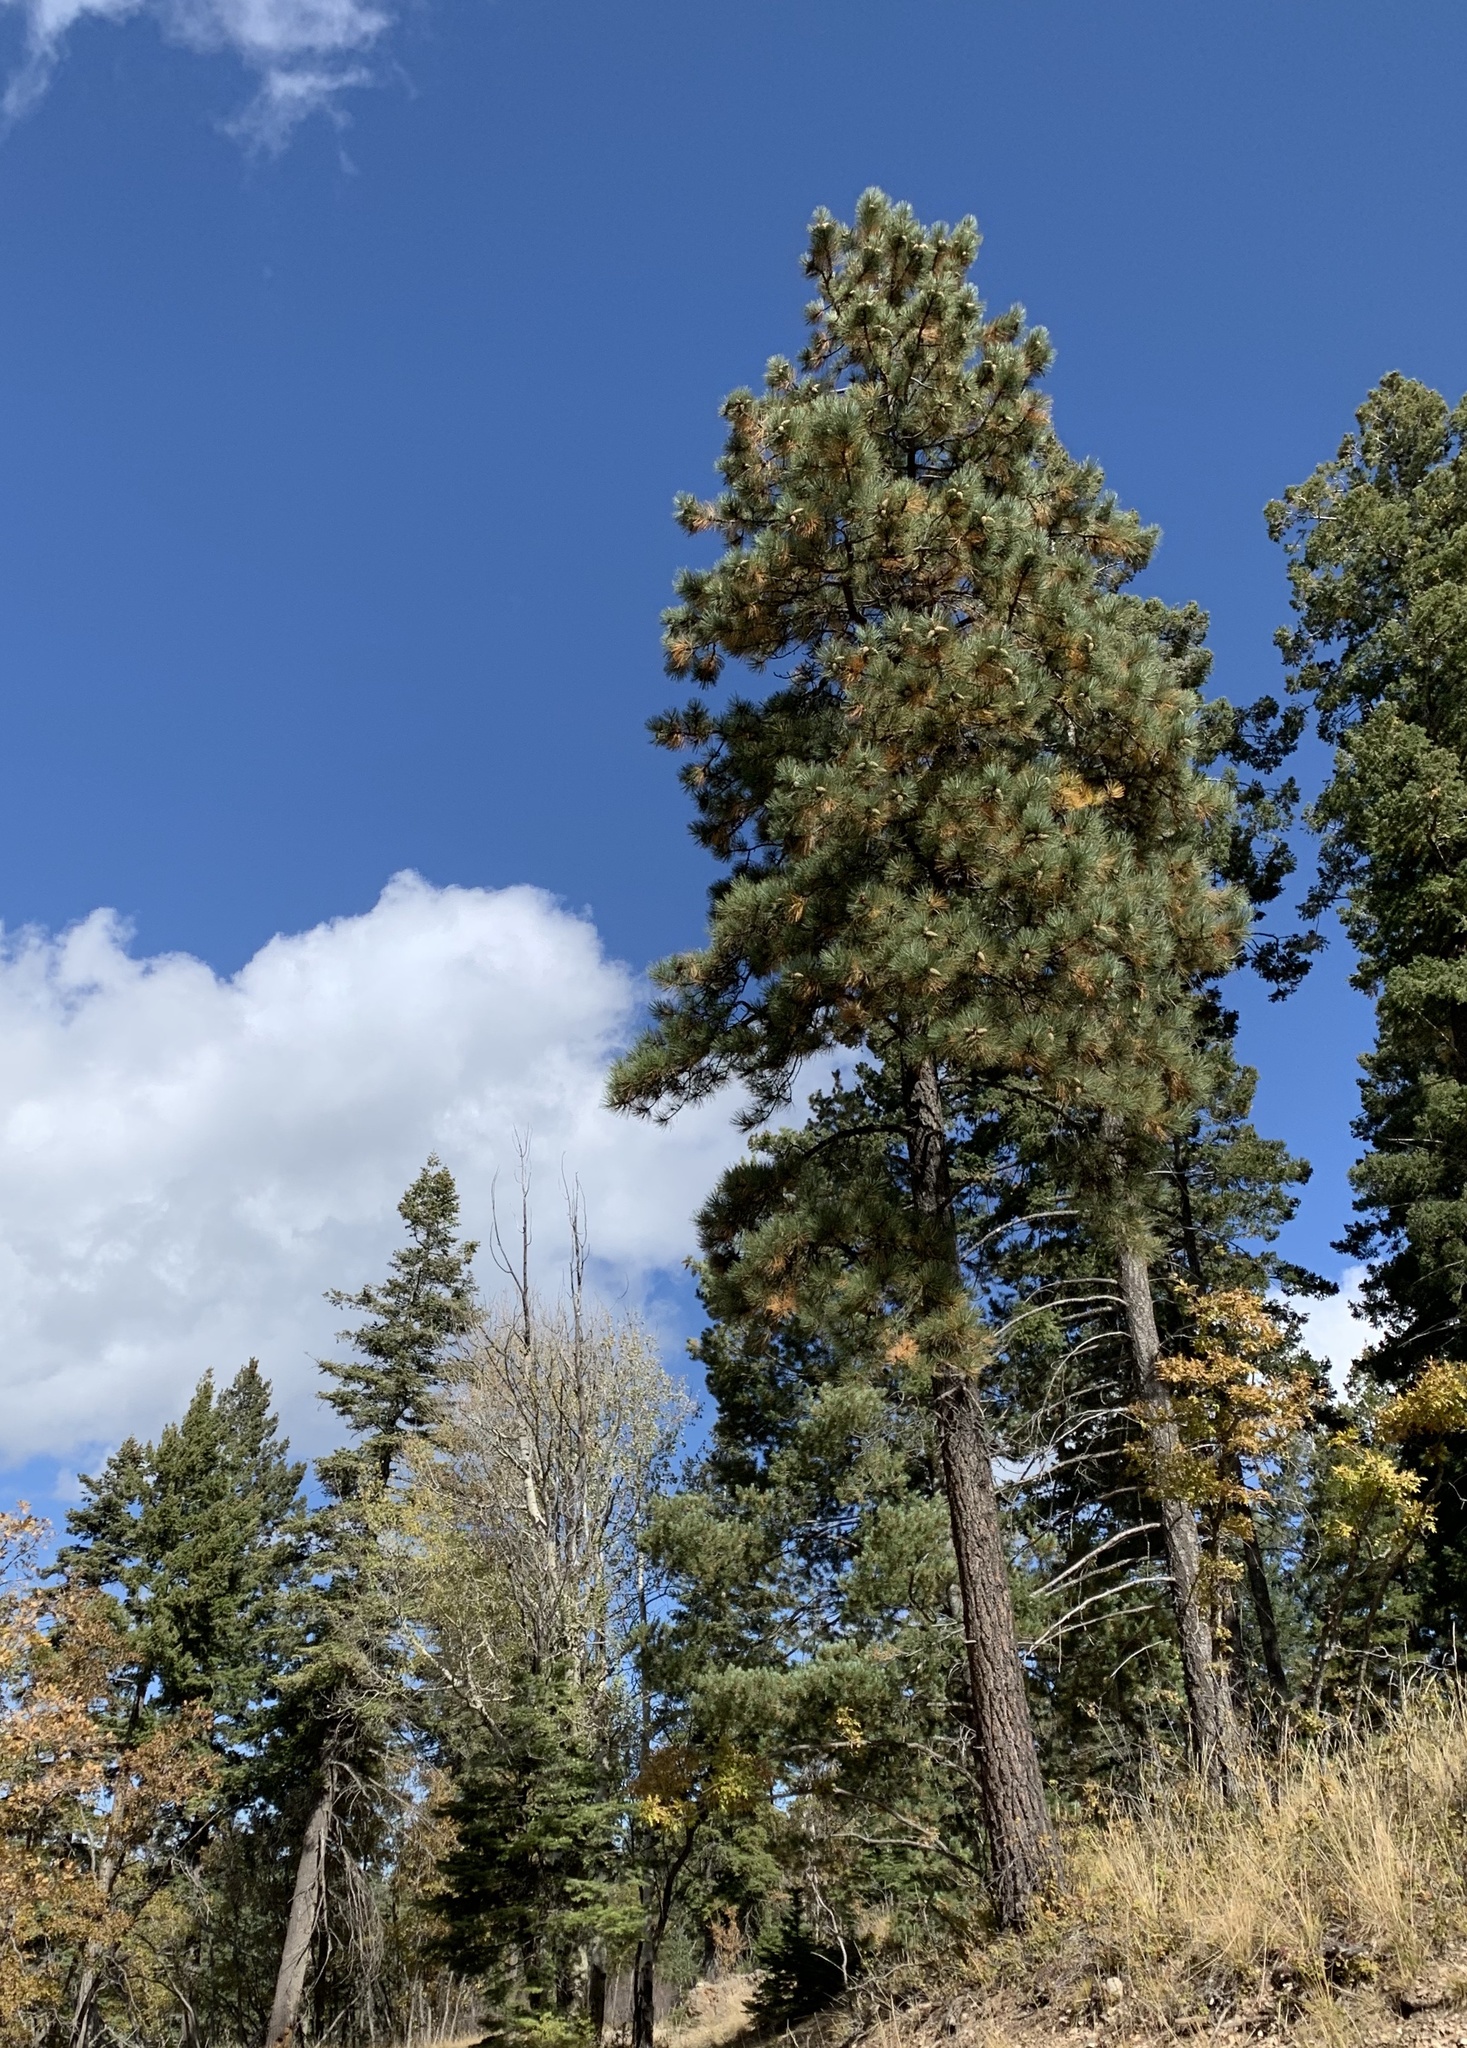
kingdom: Plantae
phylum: Tracheophyta
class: Pinopsida
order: Pinales
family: Pinaceae
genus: Pinus
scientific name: Pinus ponderosa
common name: Western yellow-pine
